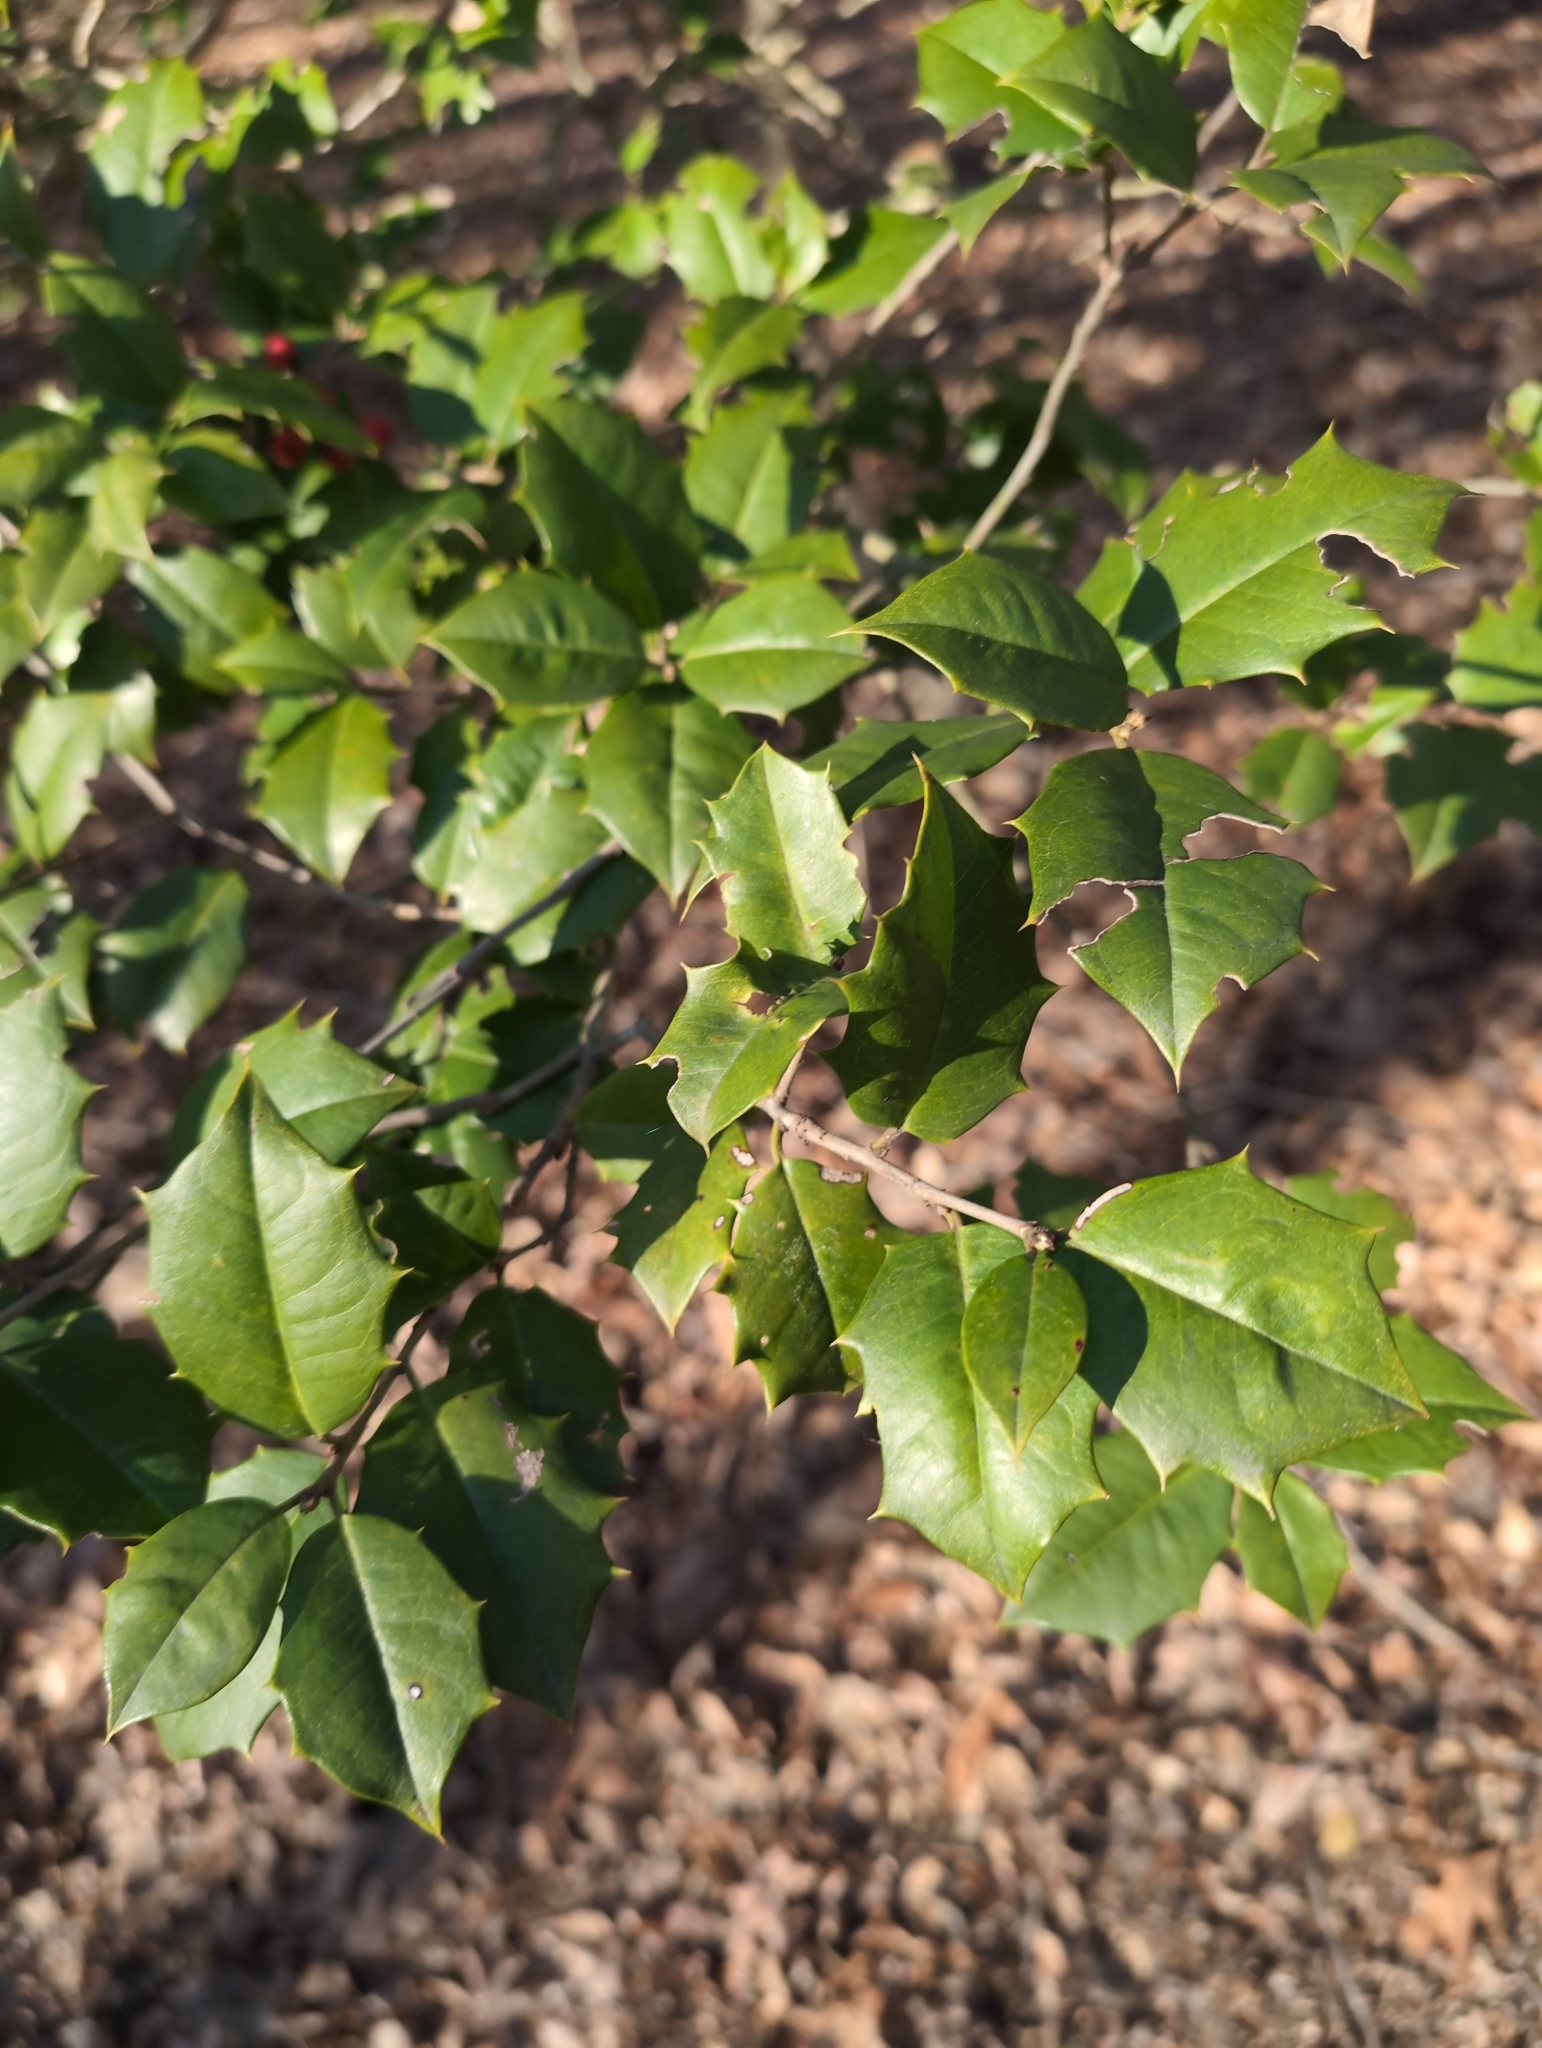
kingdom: Plantae
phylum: Tracheophyta
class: Magnoliopsida
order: Aquifoliales
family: Aquifoliaceae
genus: Ilex
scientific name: Ilex opaca
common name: American holly
